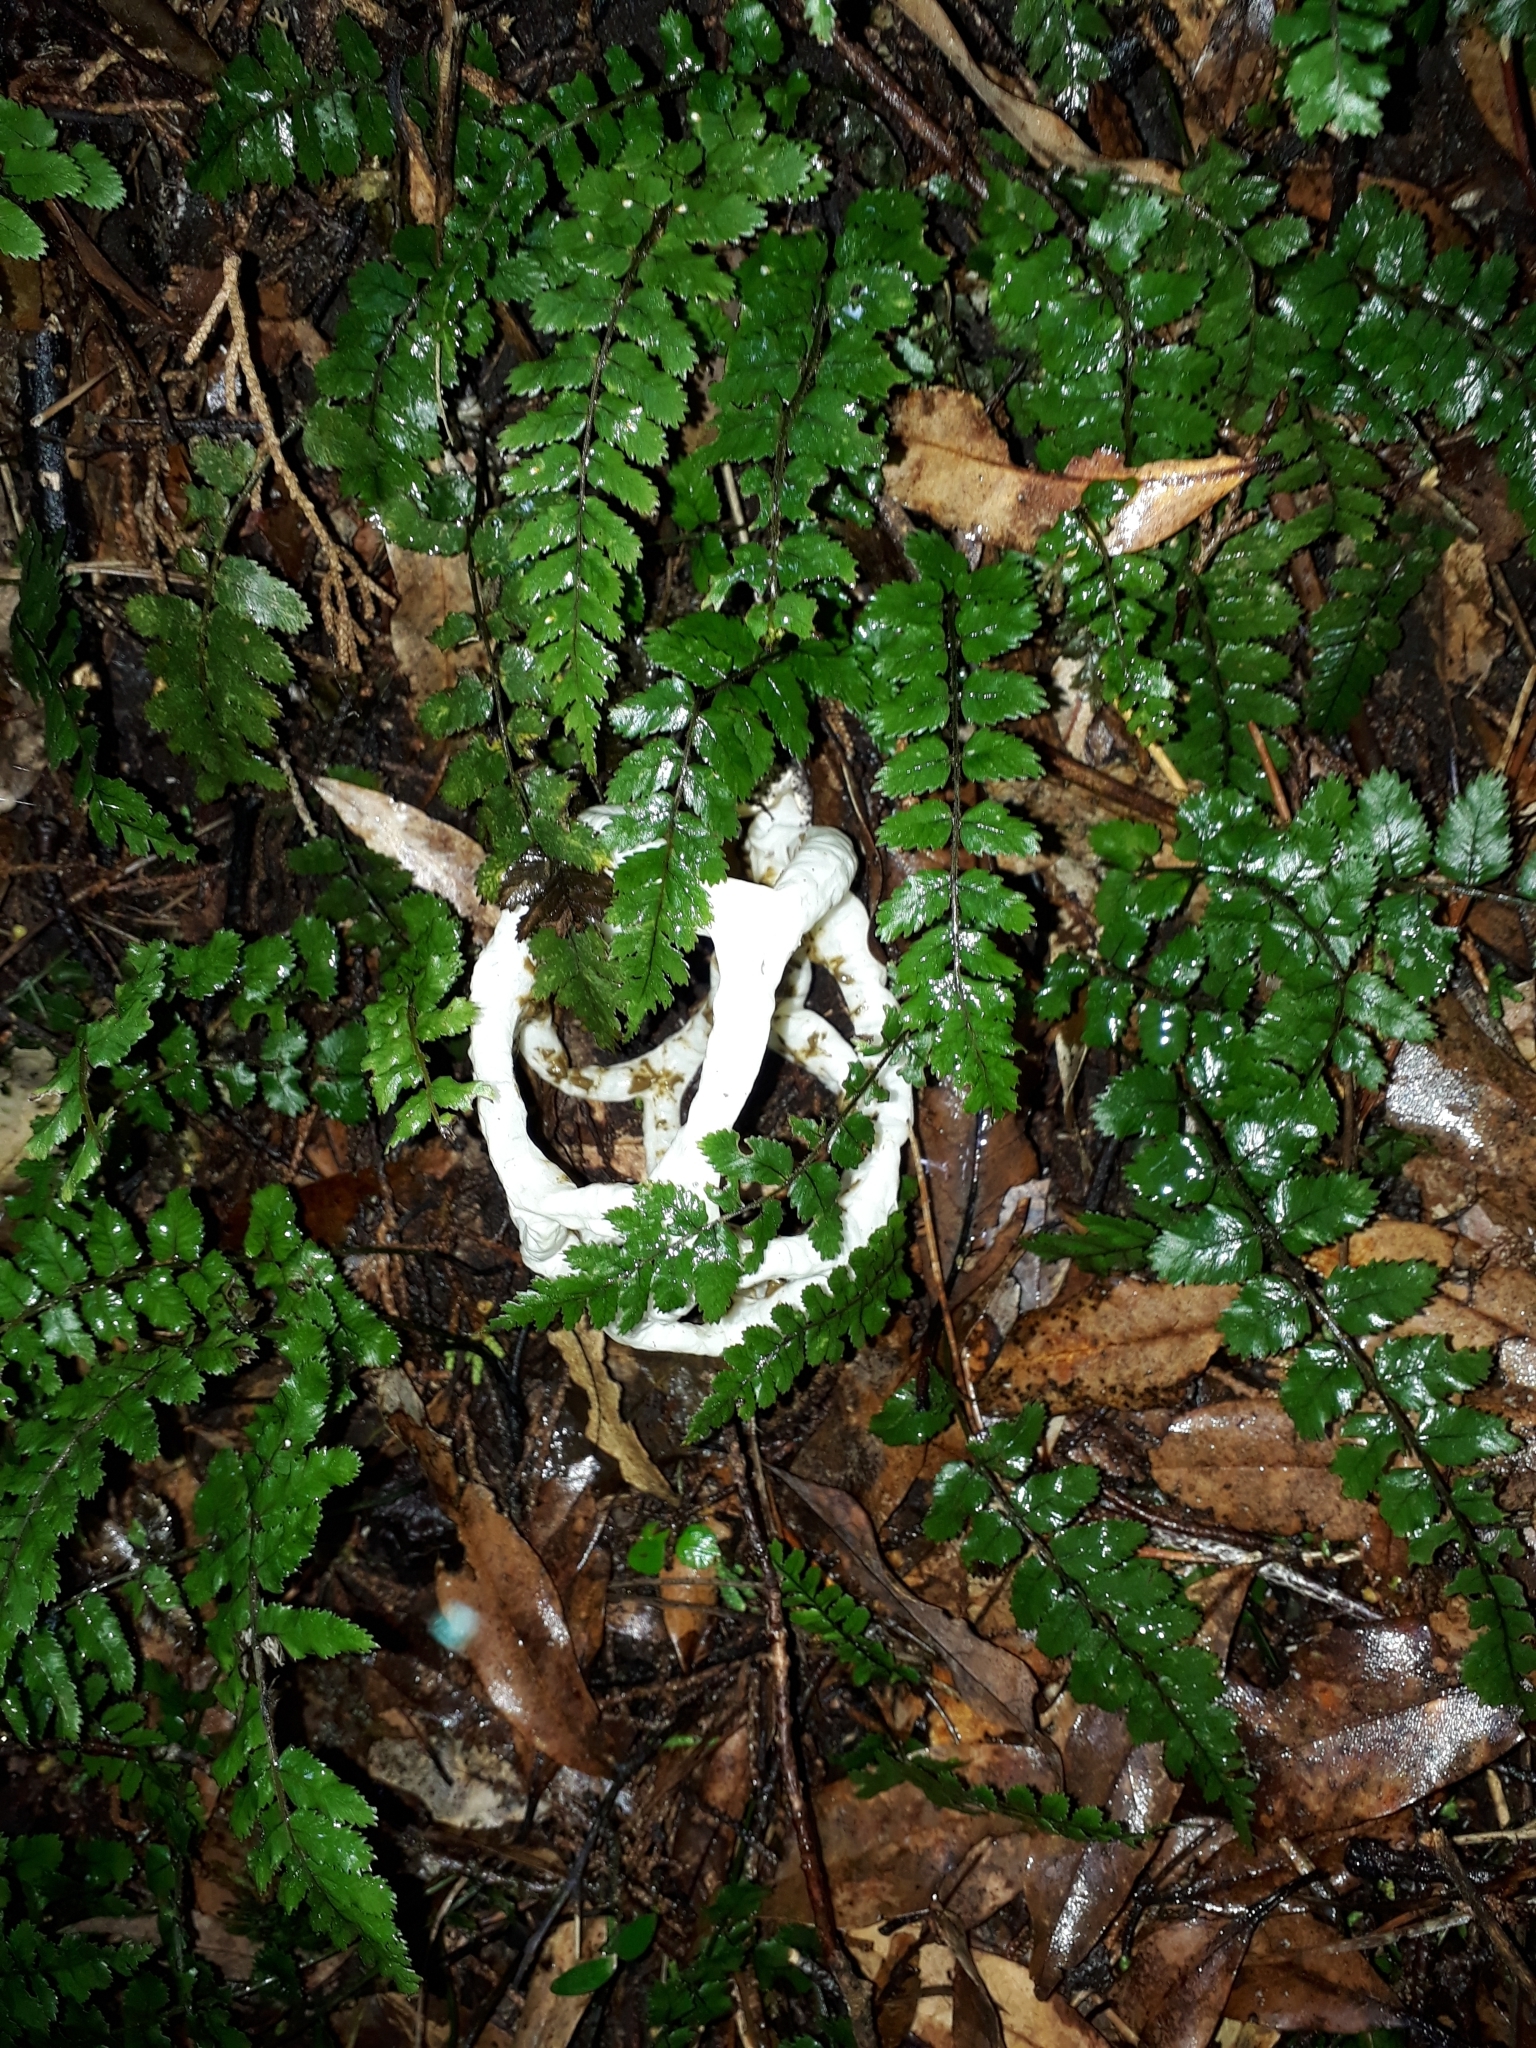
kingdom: Fungi
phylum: Basidiomycota
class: Agaricomycetes
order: Phallales
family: Phallaceae
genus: Ileodictyon
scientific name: Ileodictyon cibarium
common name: Basket fungus
